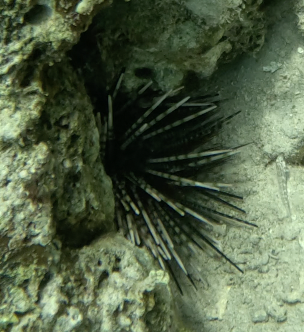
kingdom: Animalia
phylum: Echinodermata
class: Echinoidea
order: Diadematoida
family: Diadematidae
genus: Echinothrix
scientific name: Echinothrix calamaris
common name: Banded sea urchin
